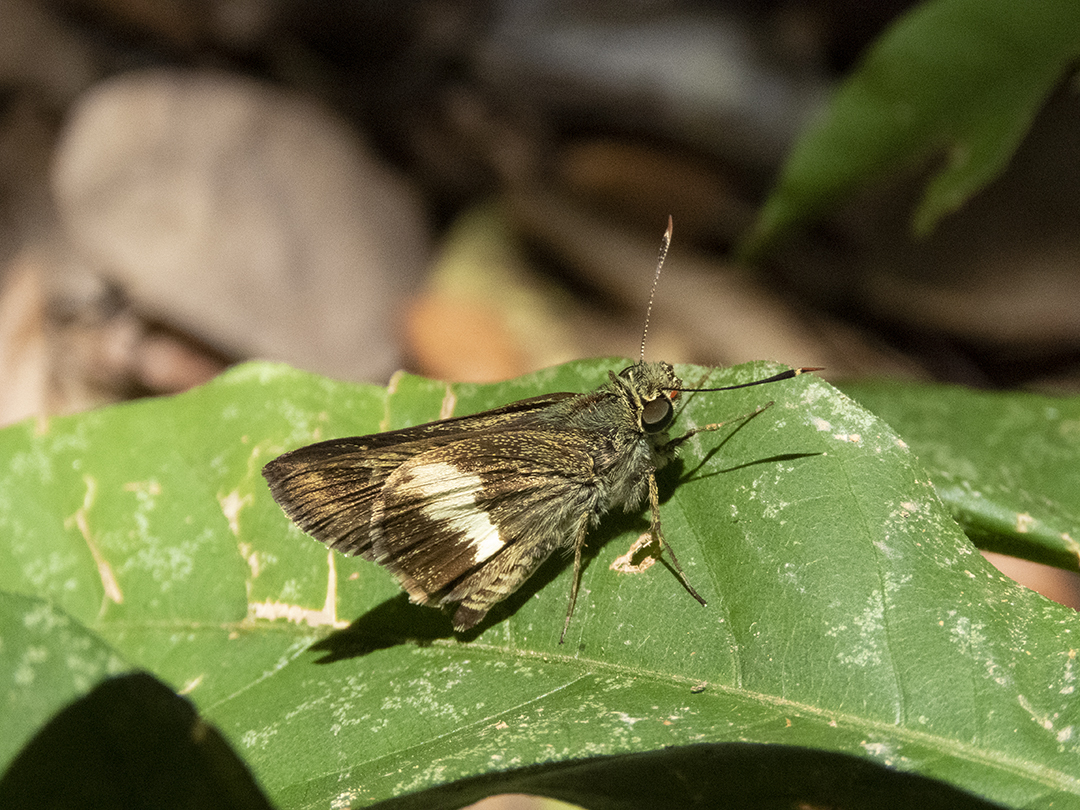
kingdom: Animalia
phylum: Arthropoda
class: Insecta
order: Lepidoptera
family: Hesperiidae
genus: Halpe
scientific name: Halpe zola
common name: Long-banded ace
